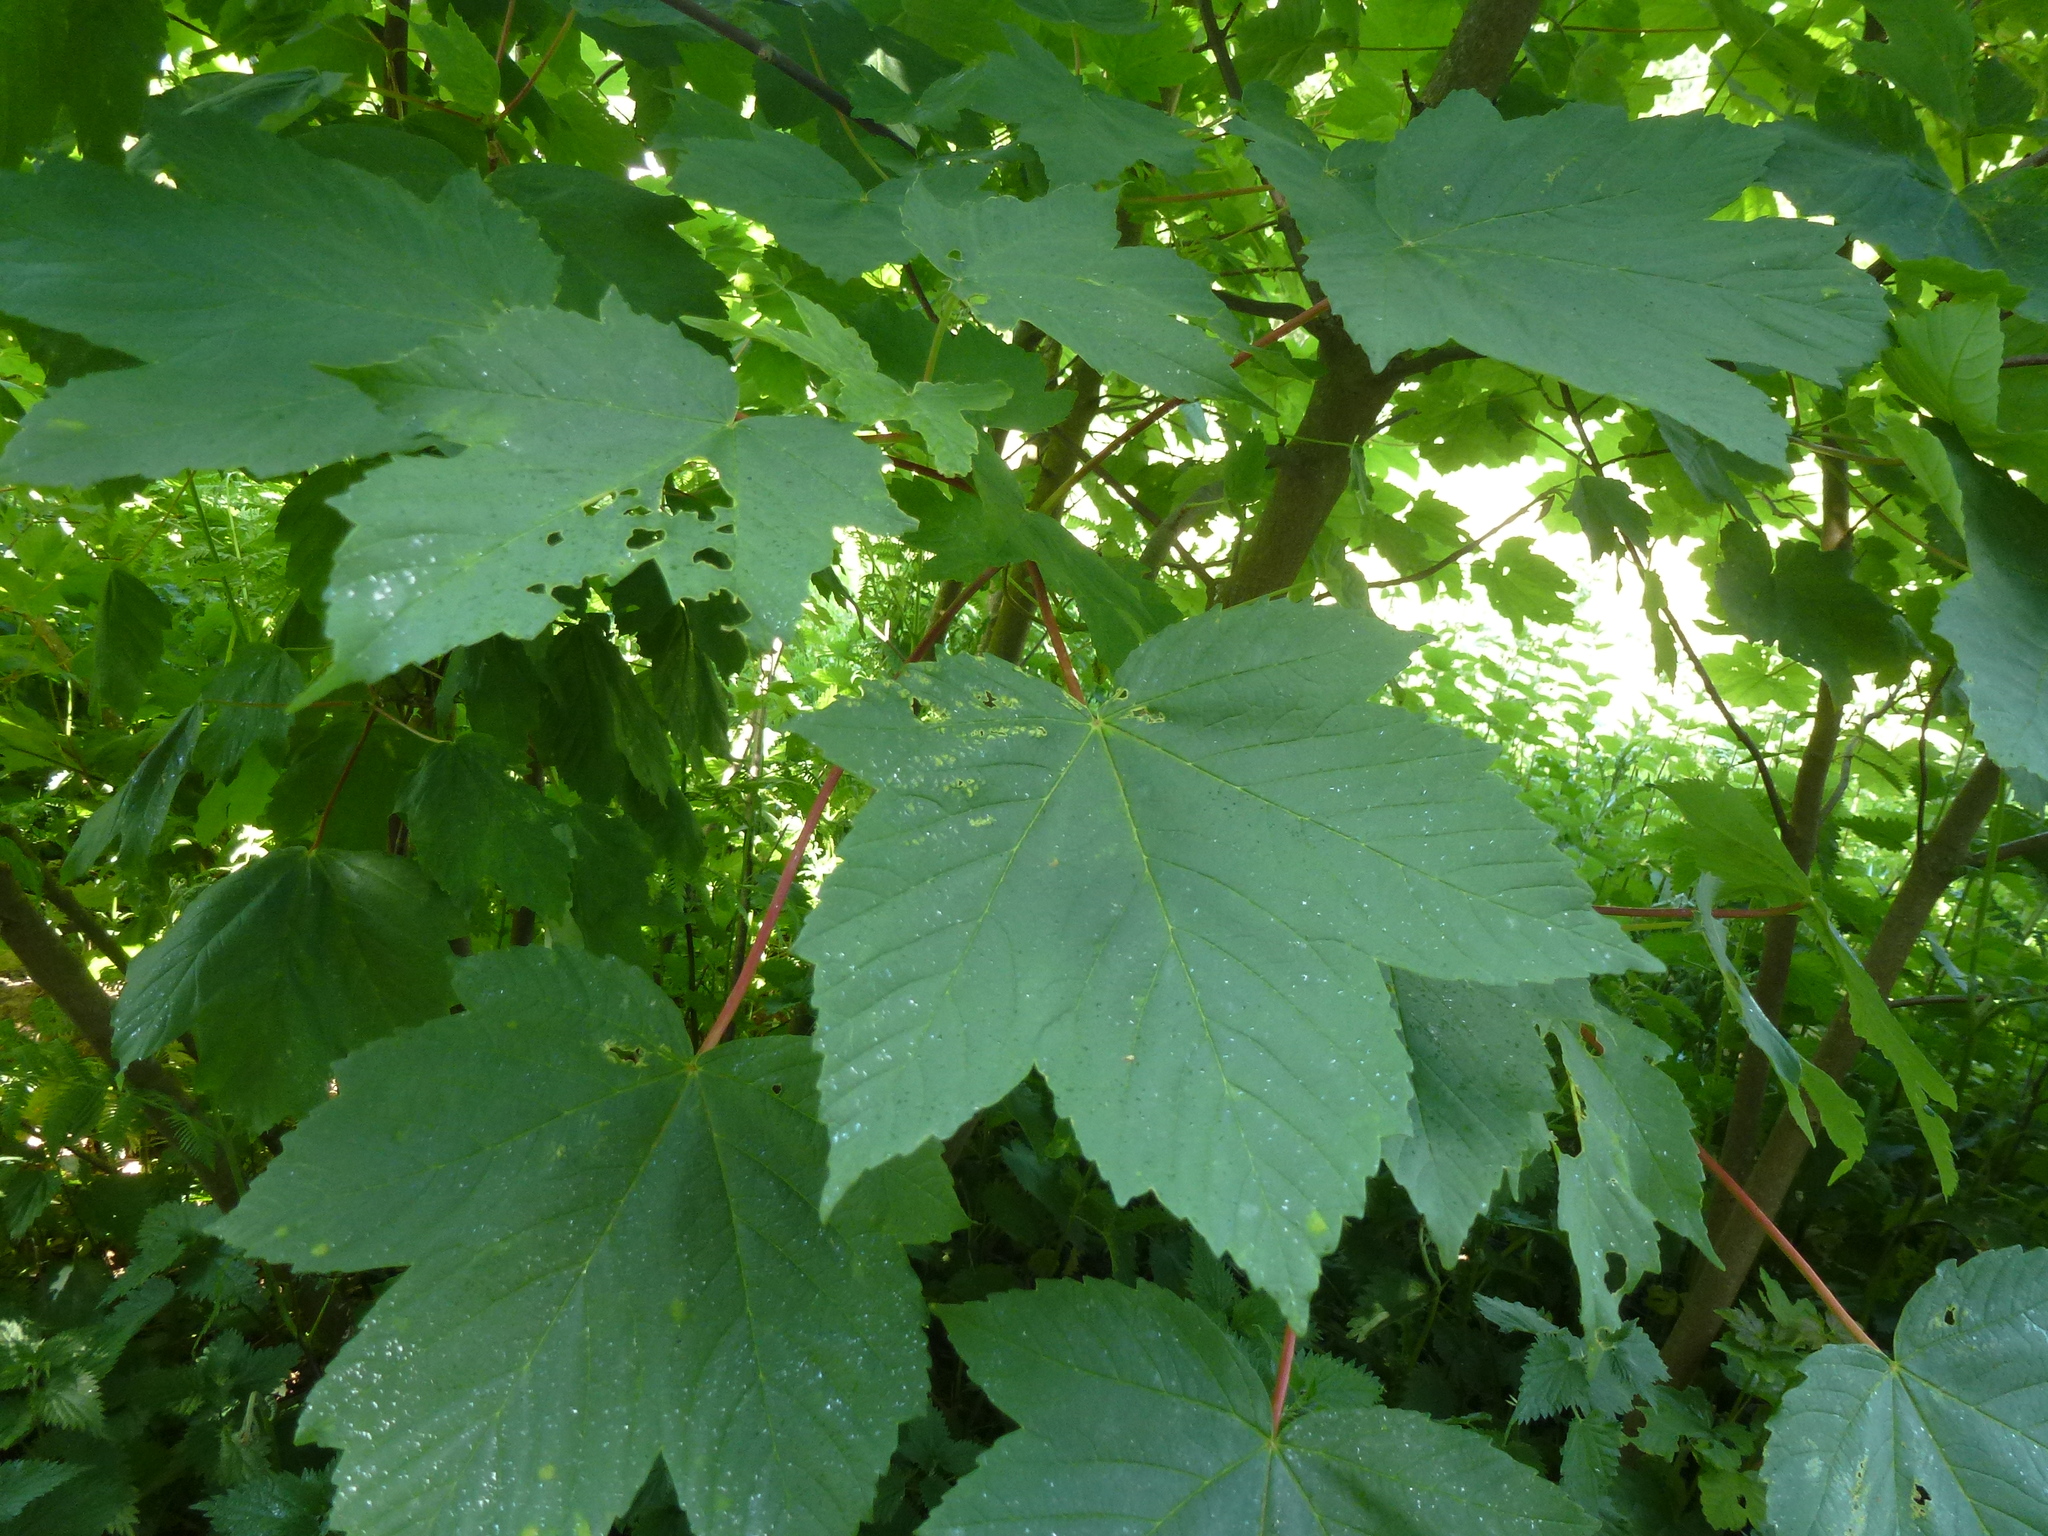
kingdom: Plantae
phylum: Tracheophyta
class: Magnoliopsida
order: Sapindales
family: Sapindaceae
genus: Acer
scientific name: Acer pseudoplatanus
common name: Sycamore
